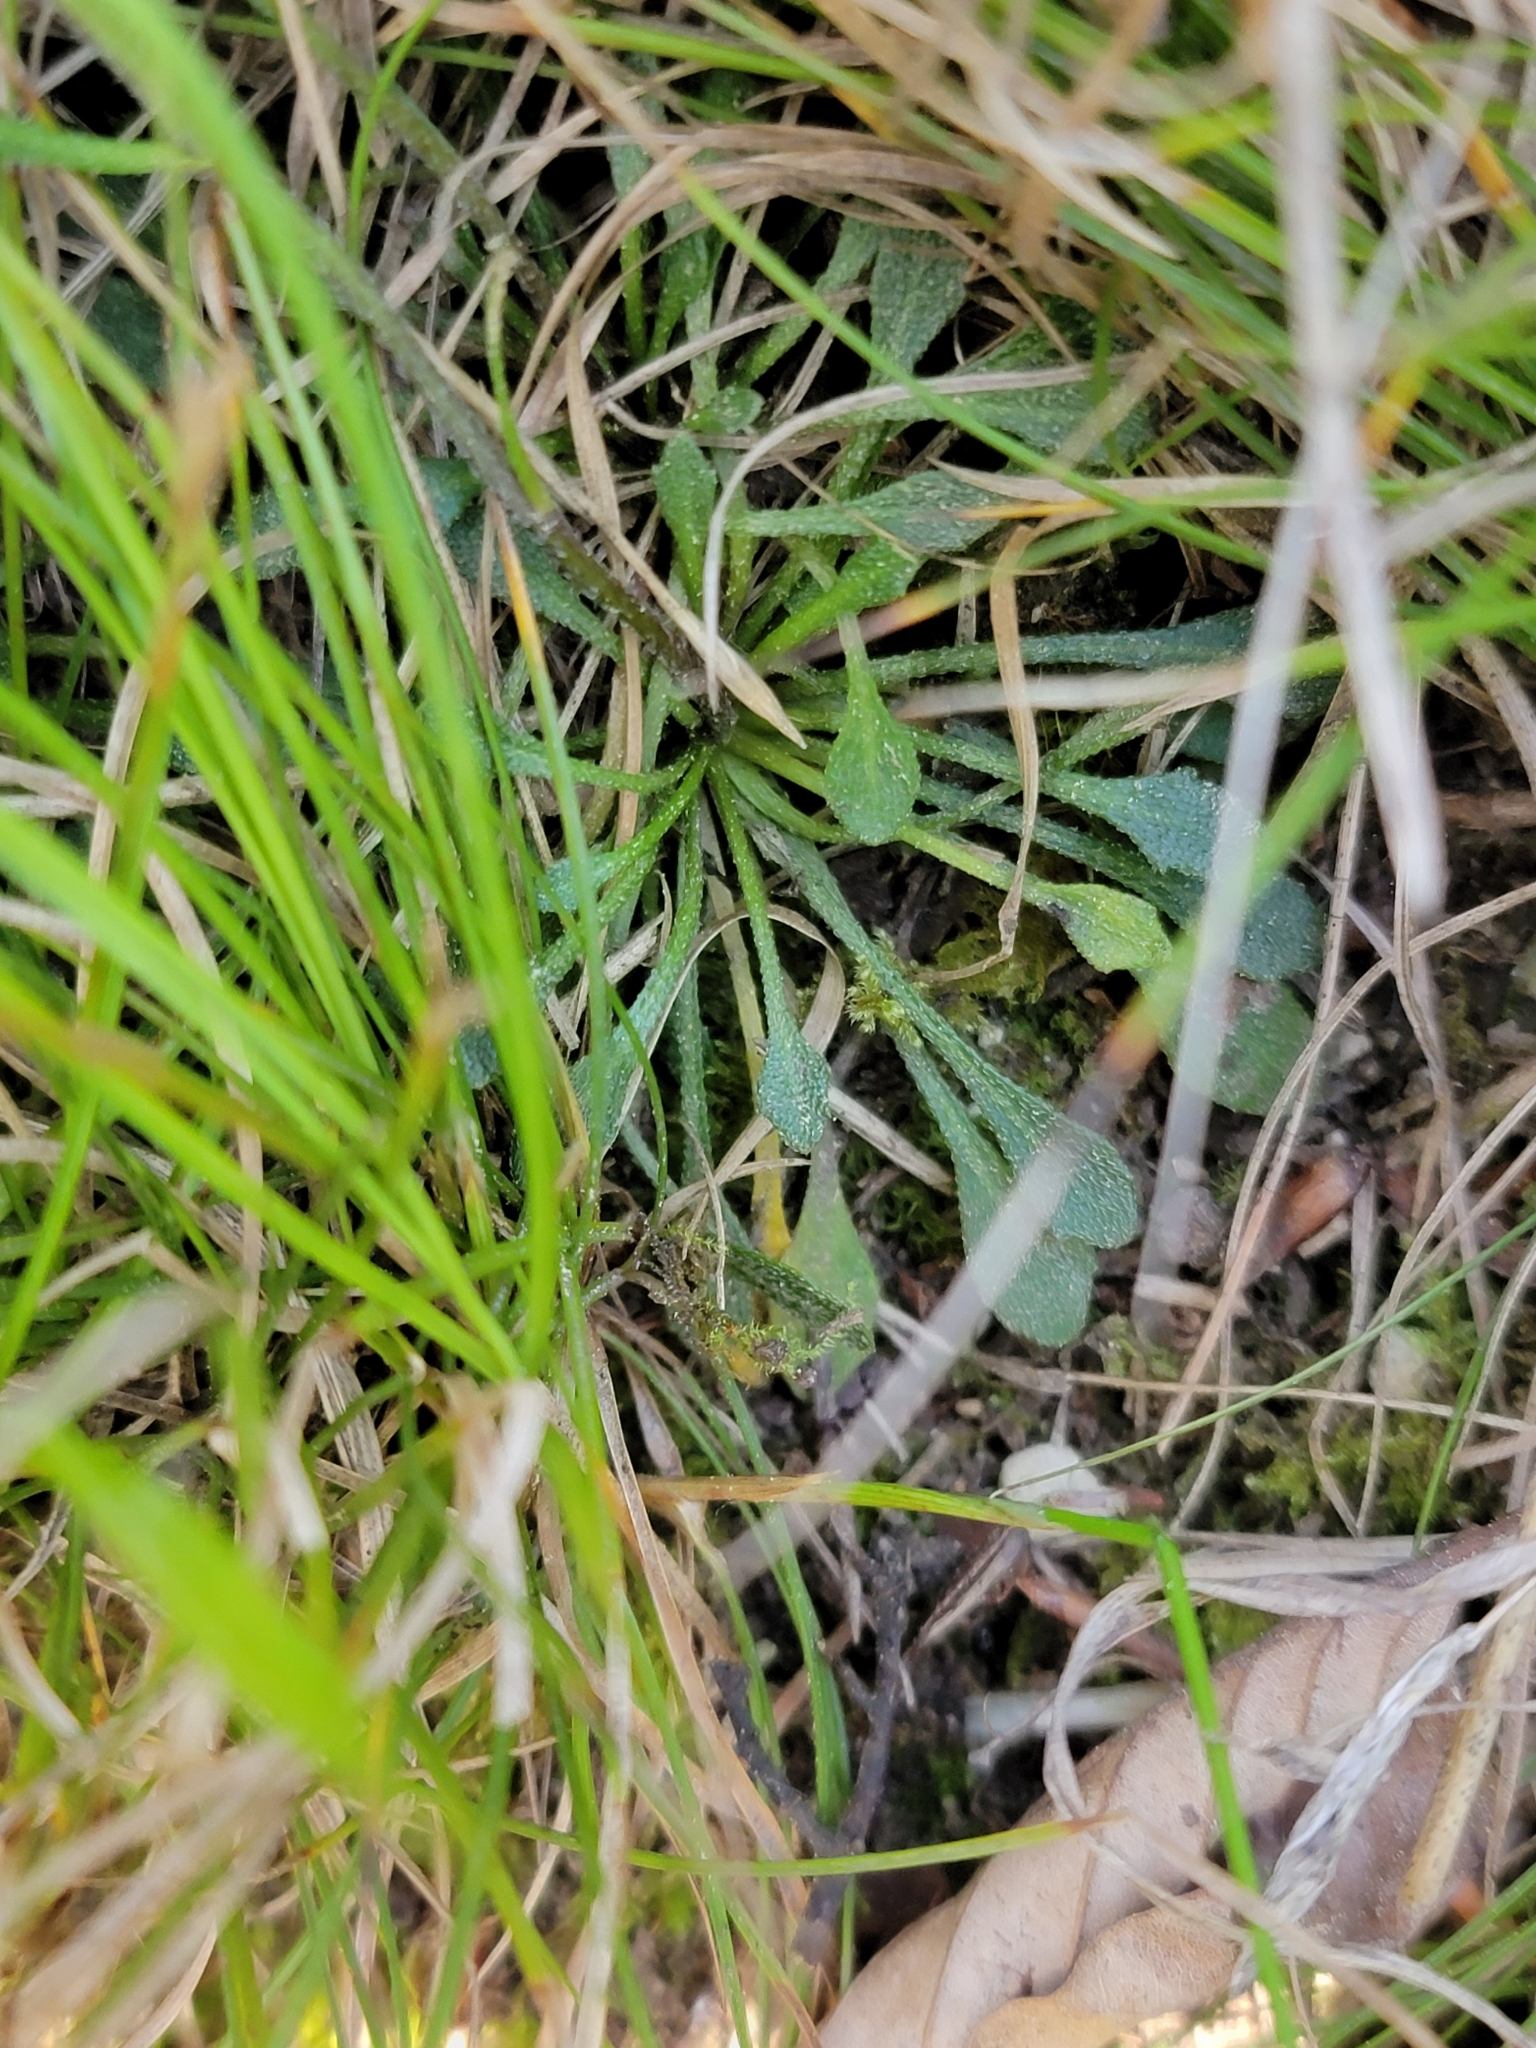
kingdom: Plantae
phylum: Tracheophyta
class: Magnoliopsida
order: Brassicales
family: Brassicaceae
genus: Kernera
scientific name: Kernera saxatilis
